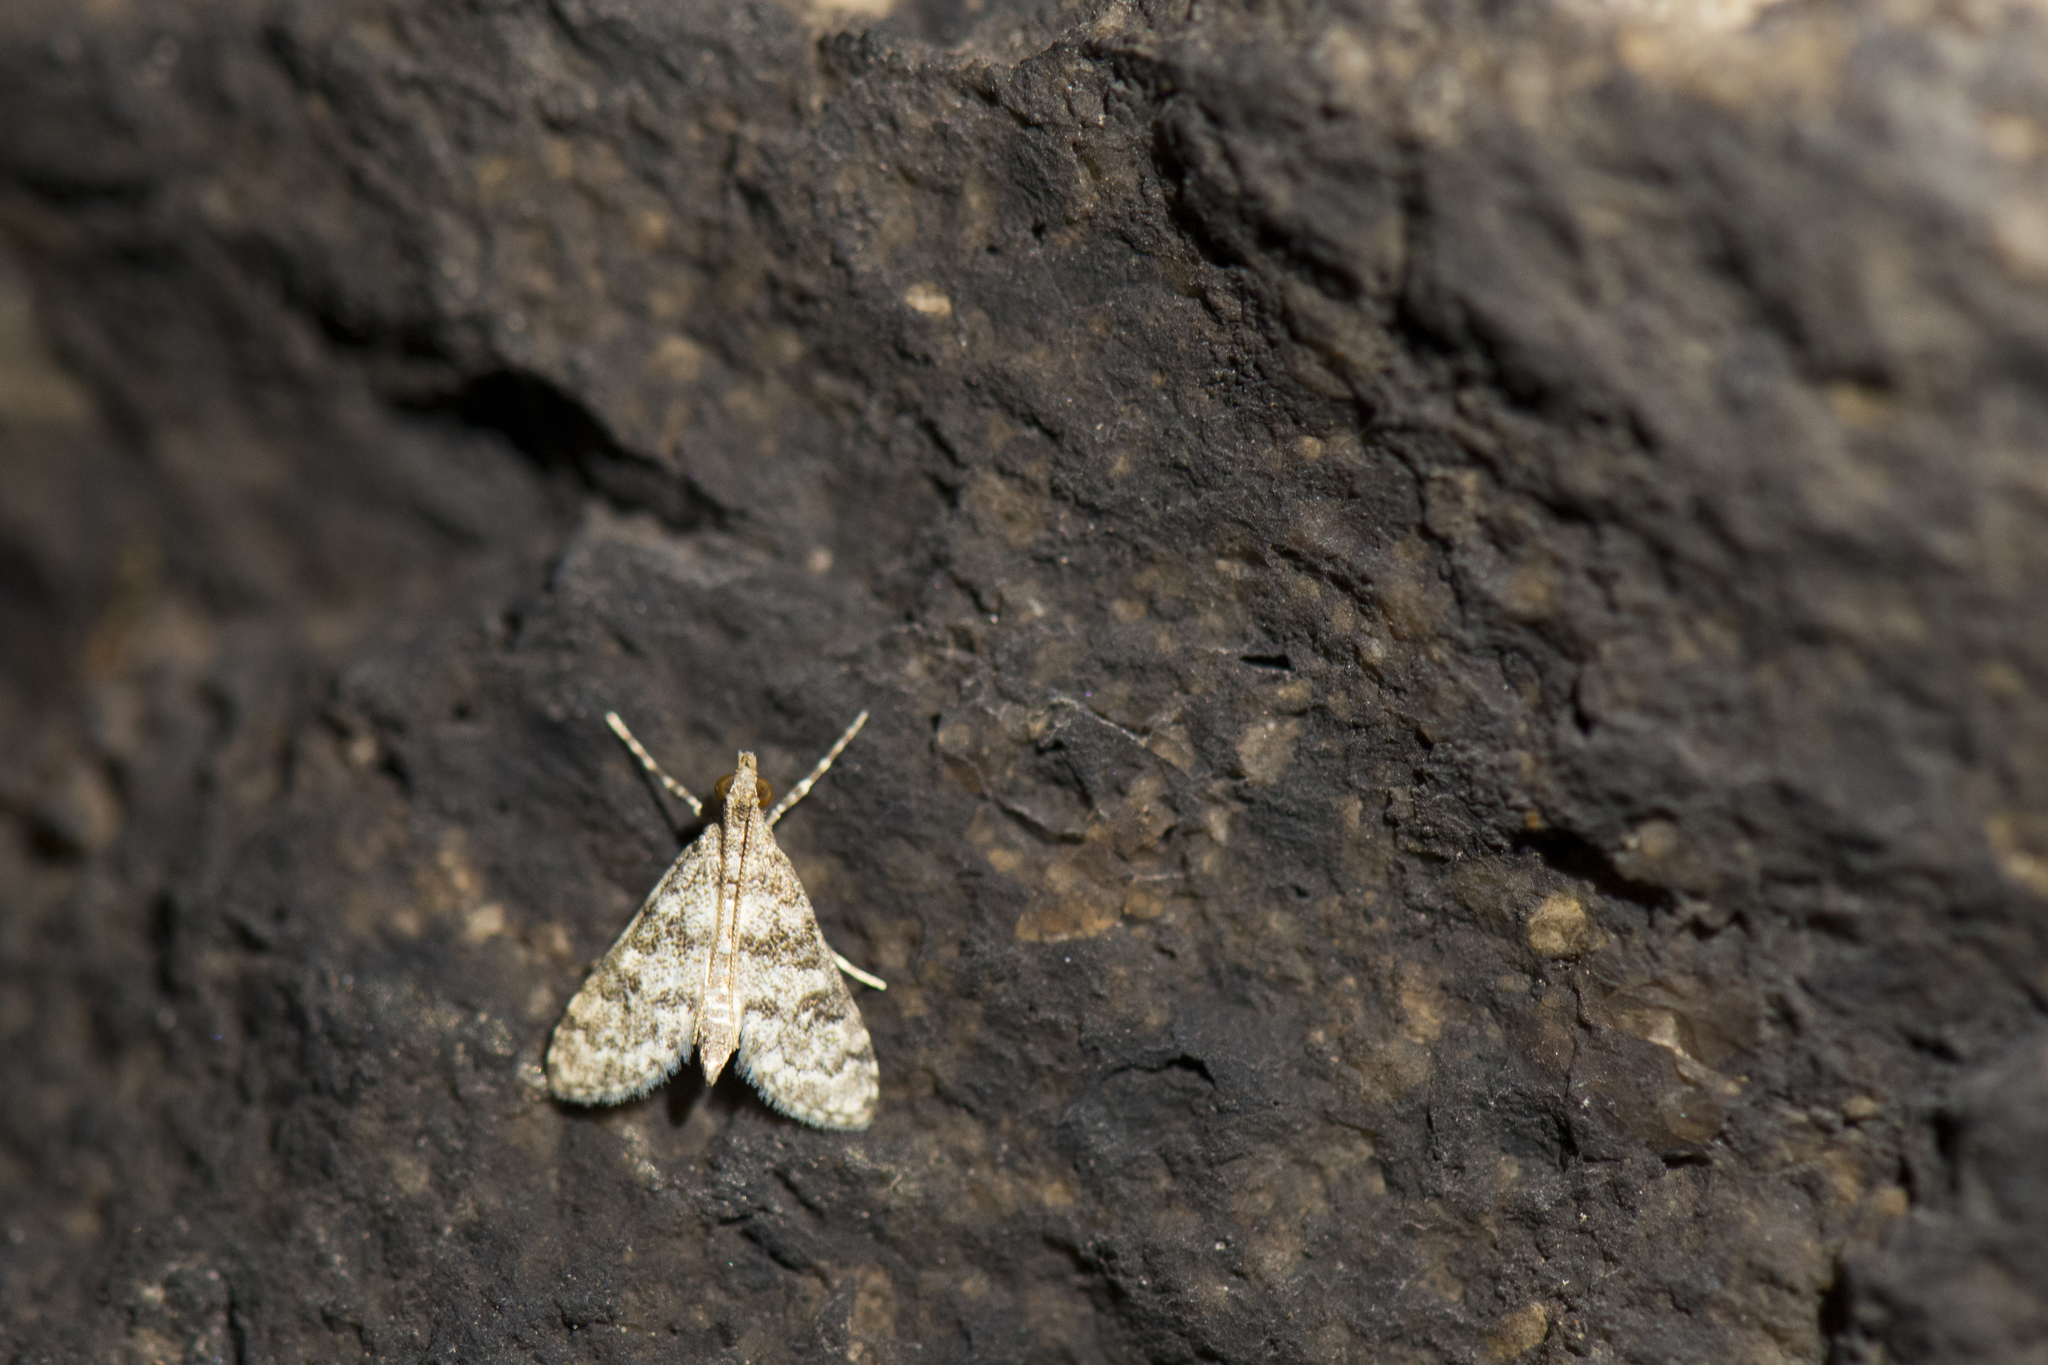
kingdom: Animalia
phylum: Arthropoda
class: Insecta
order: Lepidoptera
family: Crambidae
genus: Stenia
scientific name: Stenia Dolicharthria bruguieralis
